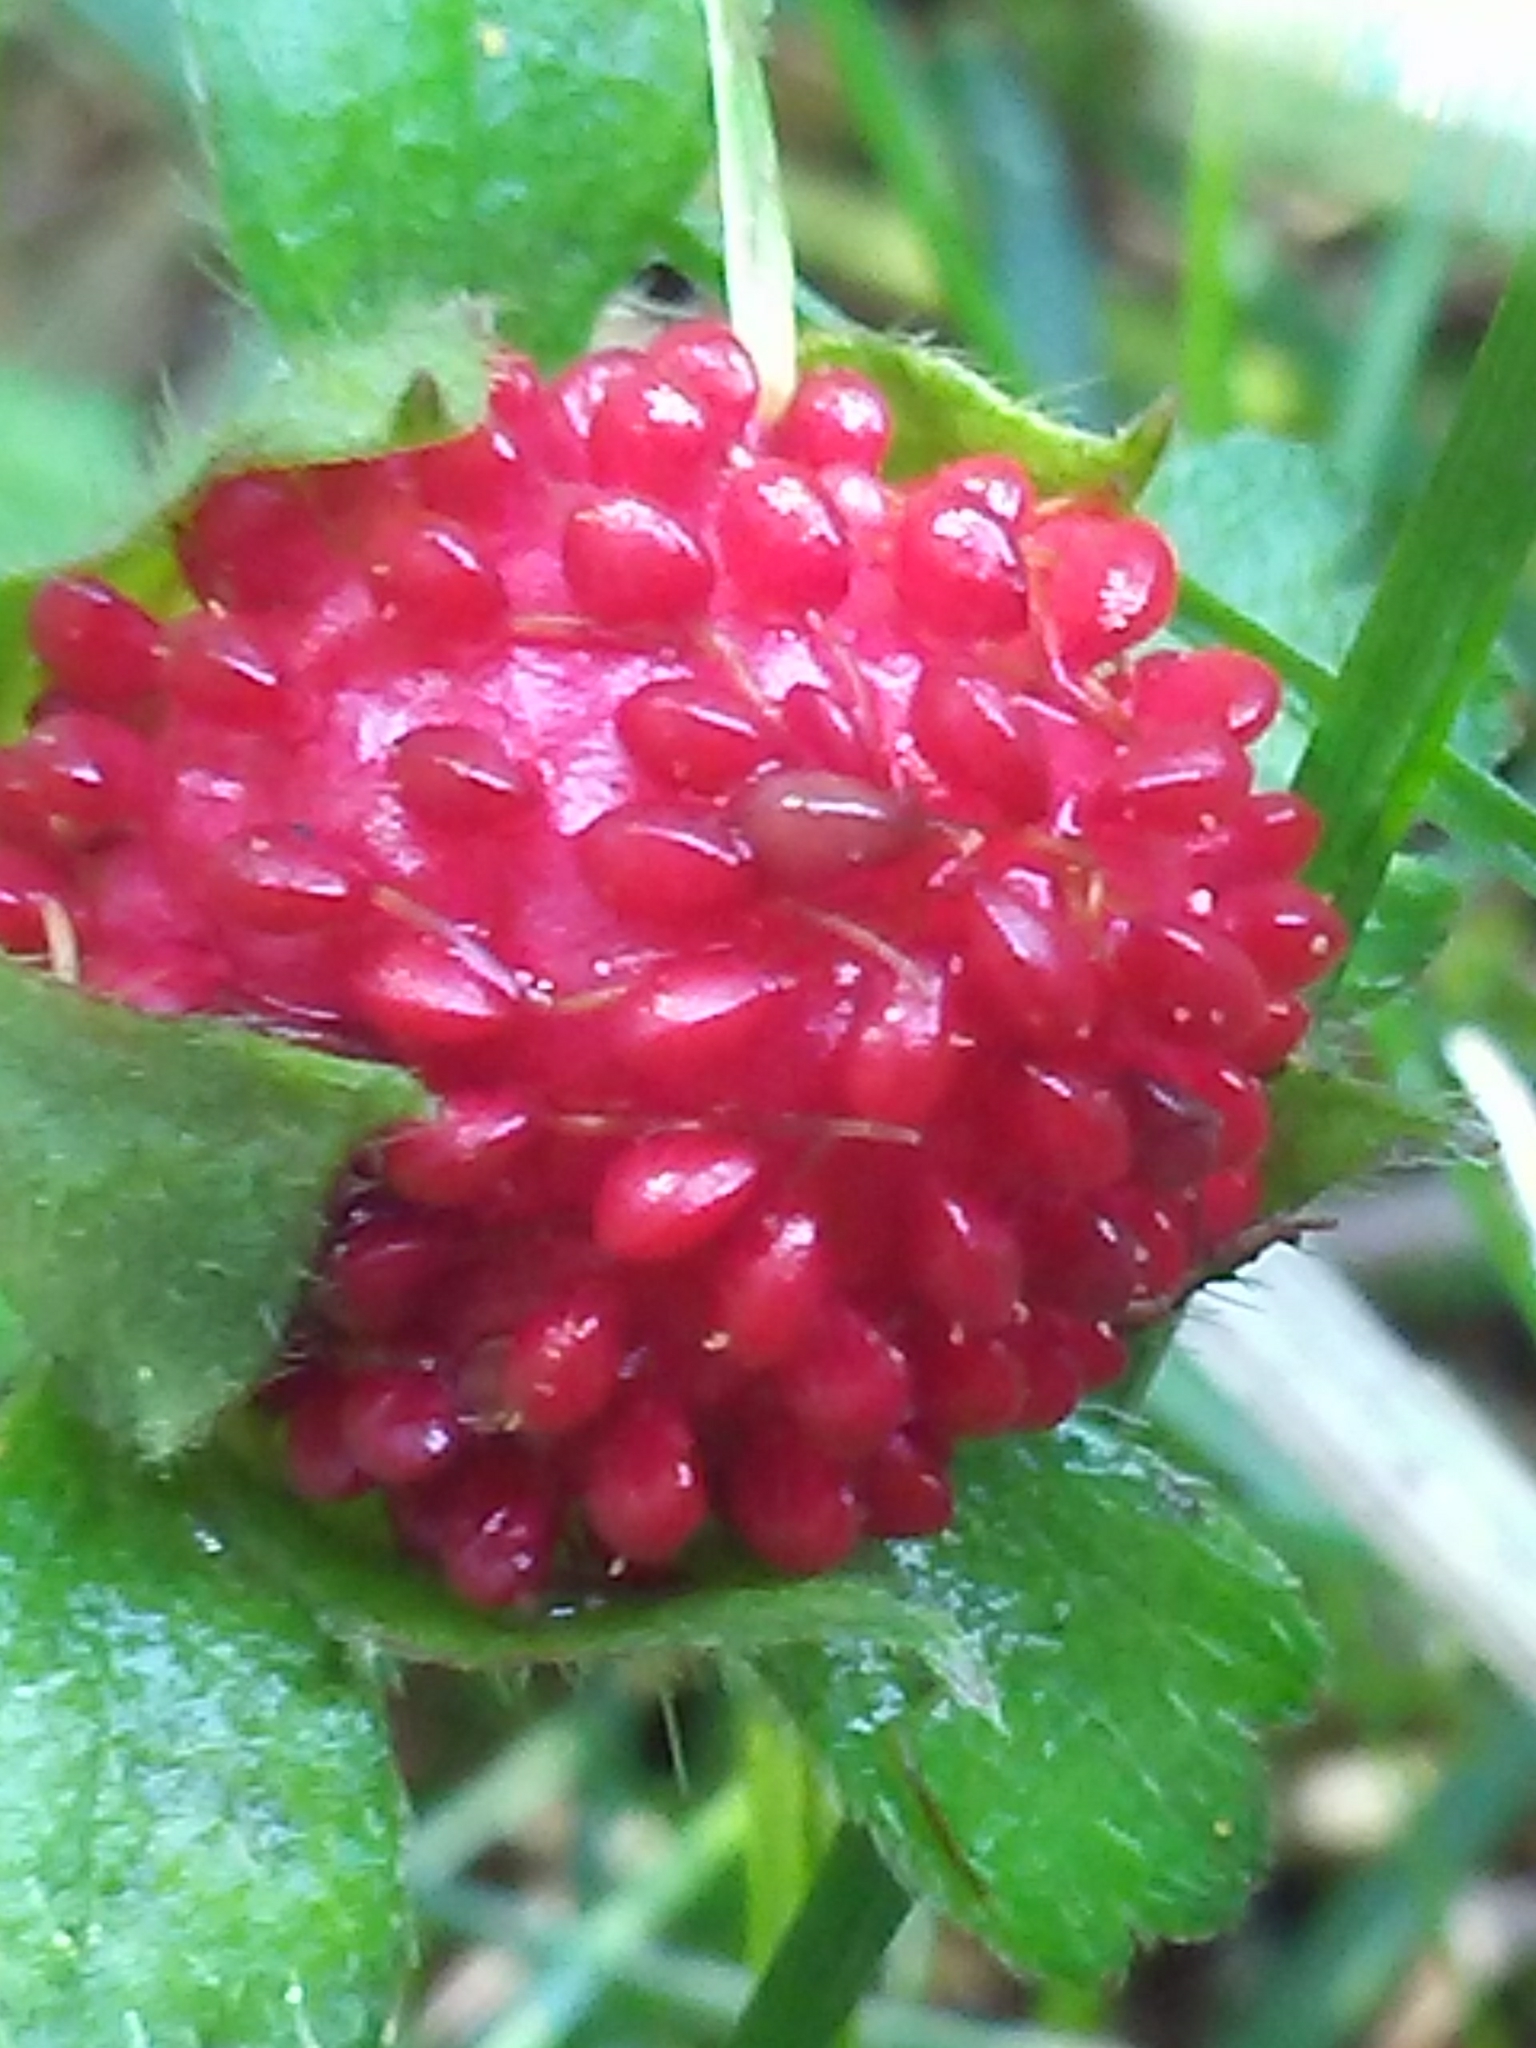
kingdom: Plantae
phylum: Tracheophyta
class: Magnoliopsida
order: Rosales
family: Rosaceae
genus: Potentilla
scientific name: Potentilla indica
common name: Yellow-flowered strawberry
